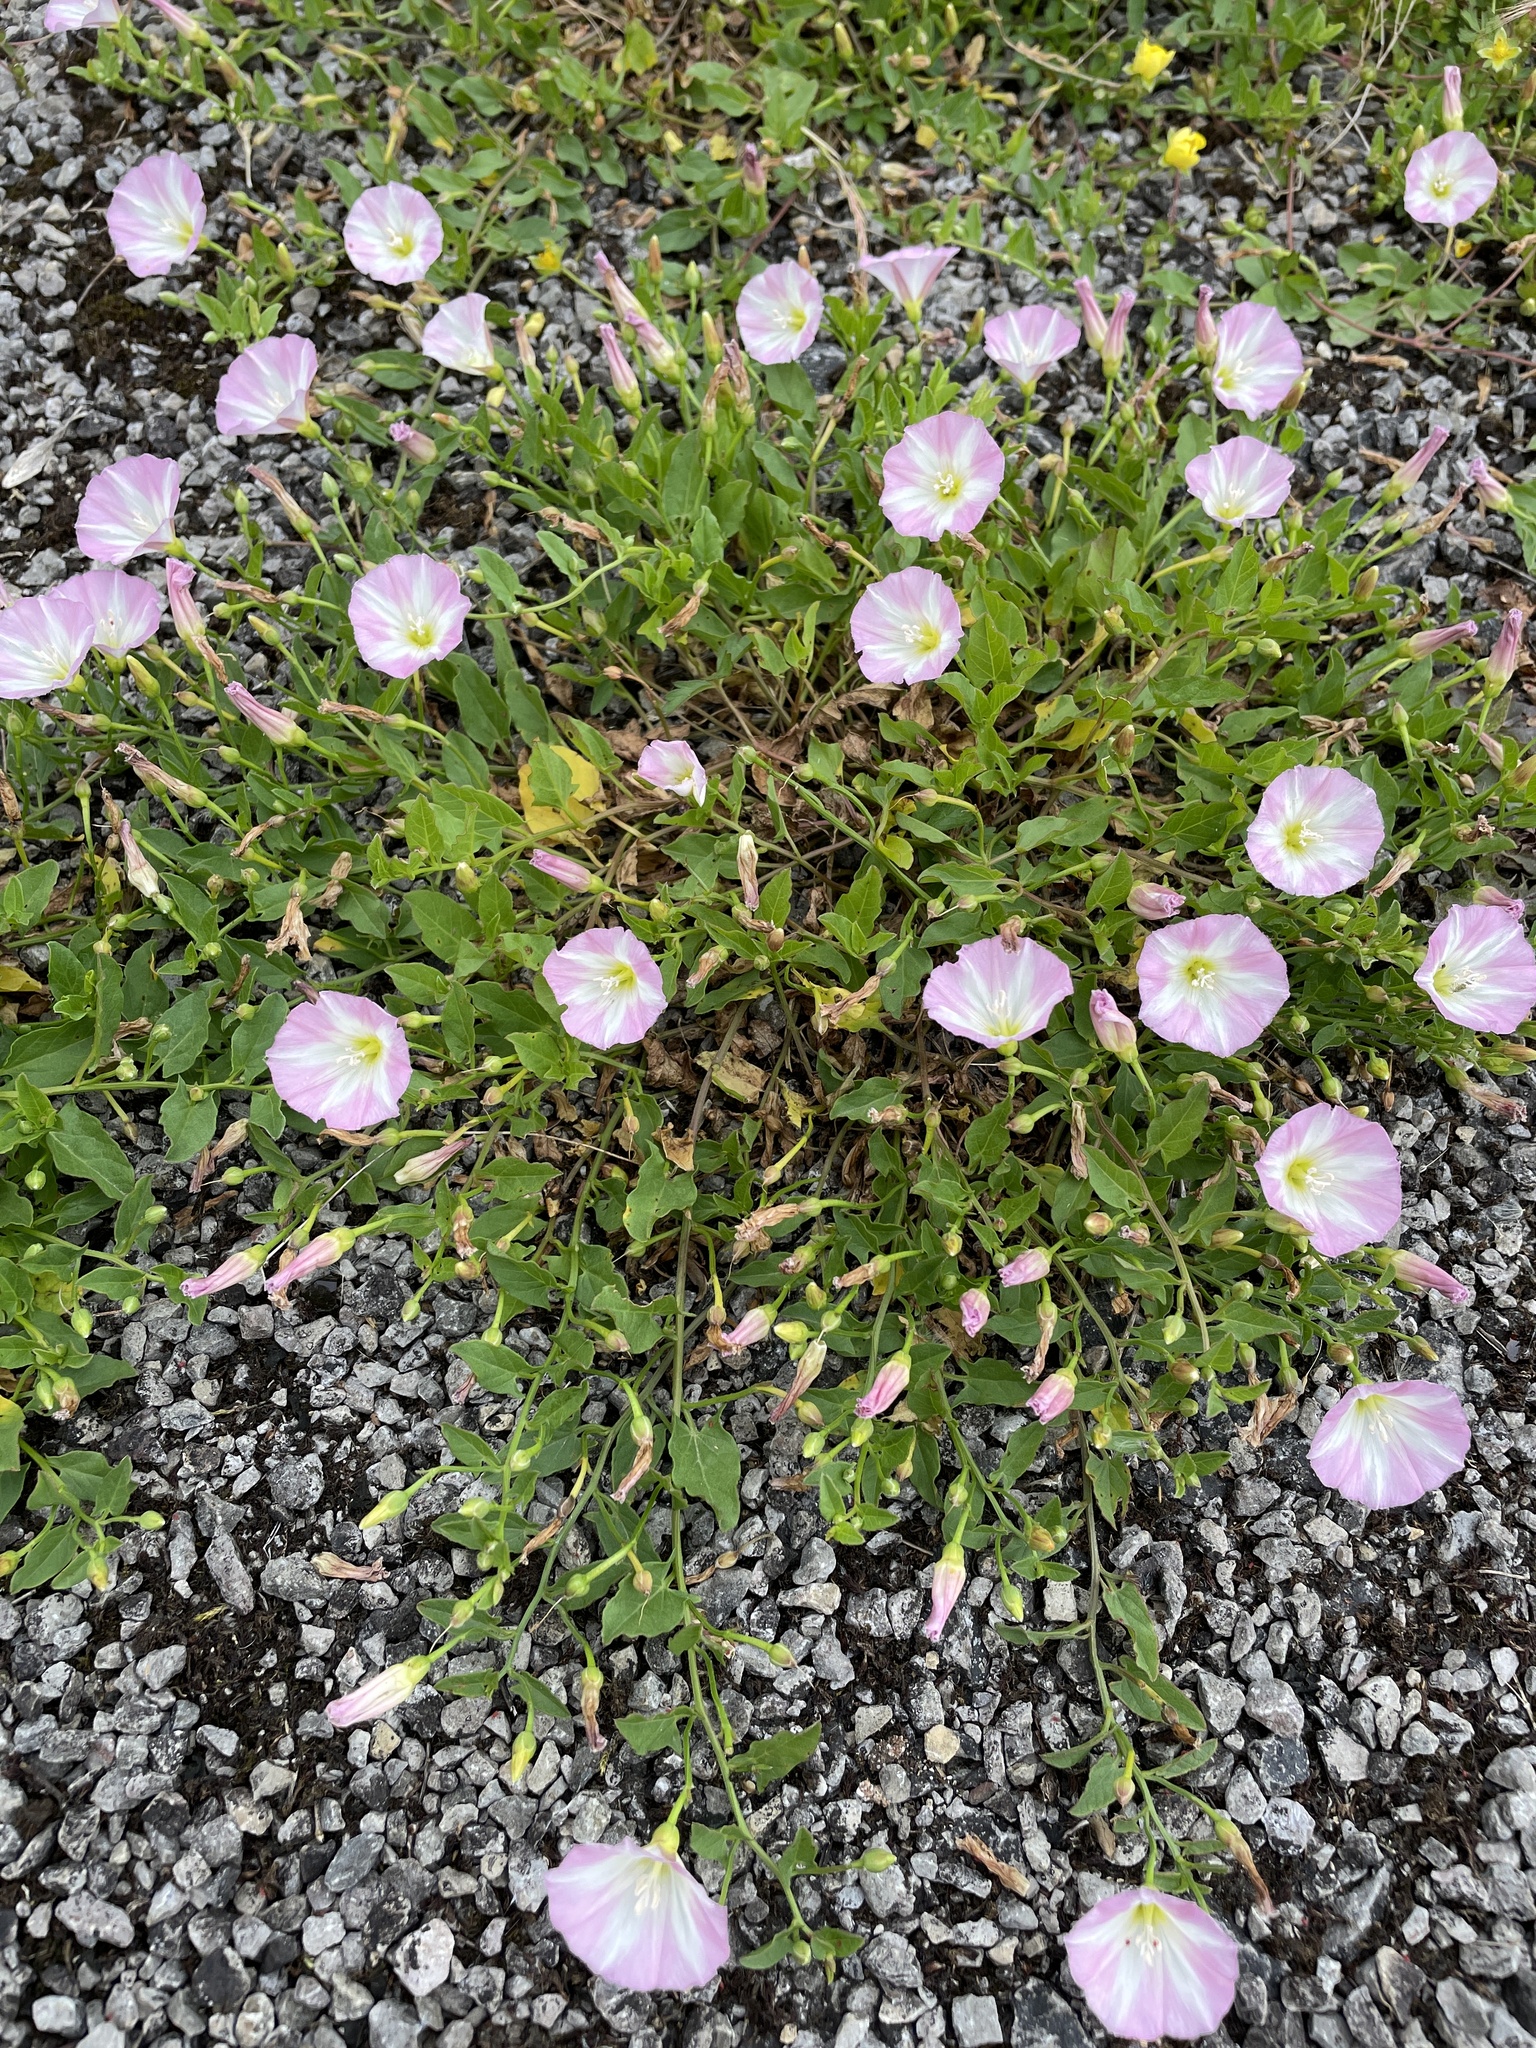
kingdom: Plantae
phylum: Tracheophyta
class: Magnoliopsida
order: Solanales
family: Convolvulaceae
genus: Convolvulus
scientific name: Convolvulus arvensis
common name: Field bindweed
